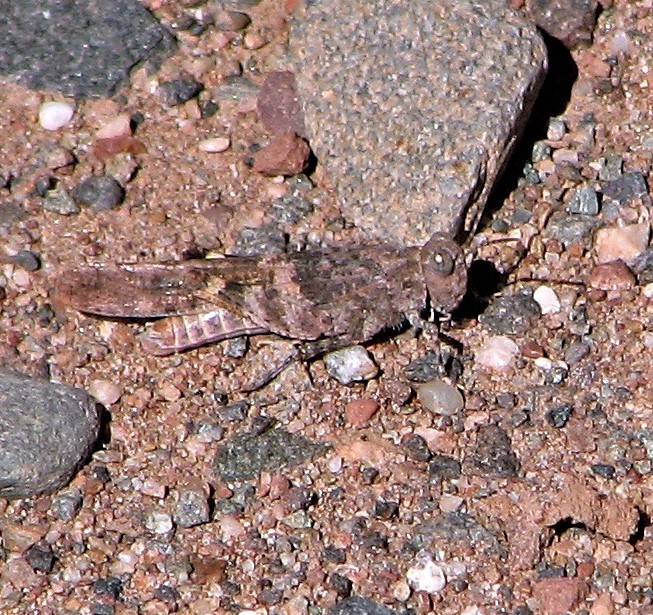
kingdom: Animalia
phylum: Arthropoda
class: Insecta
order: Orthoptera
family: Acrididae
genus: Trimerotropis
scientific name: Trimerotropis pallidipennis
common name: Pallid-winged grasshopper
